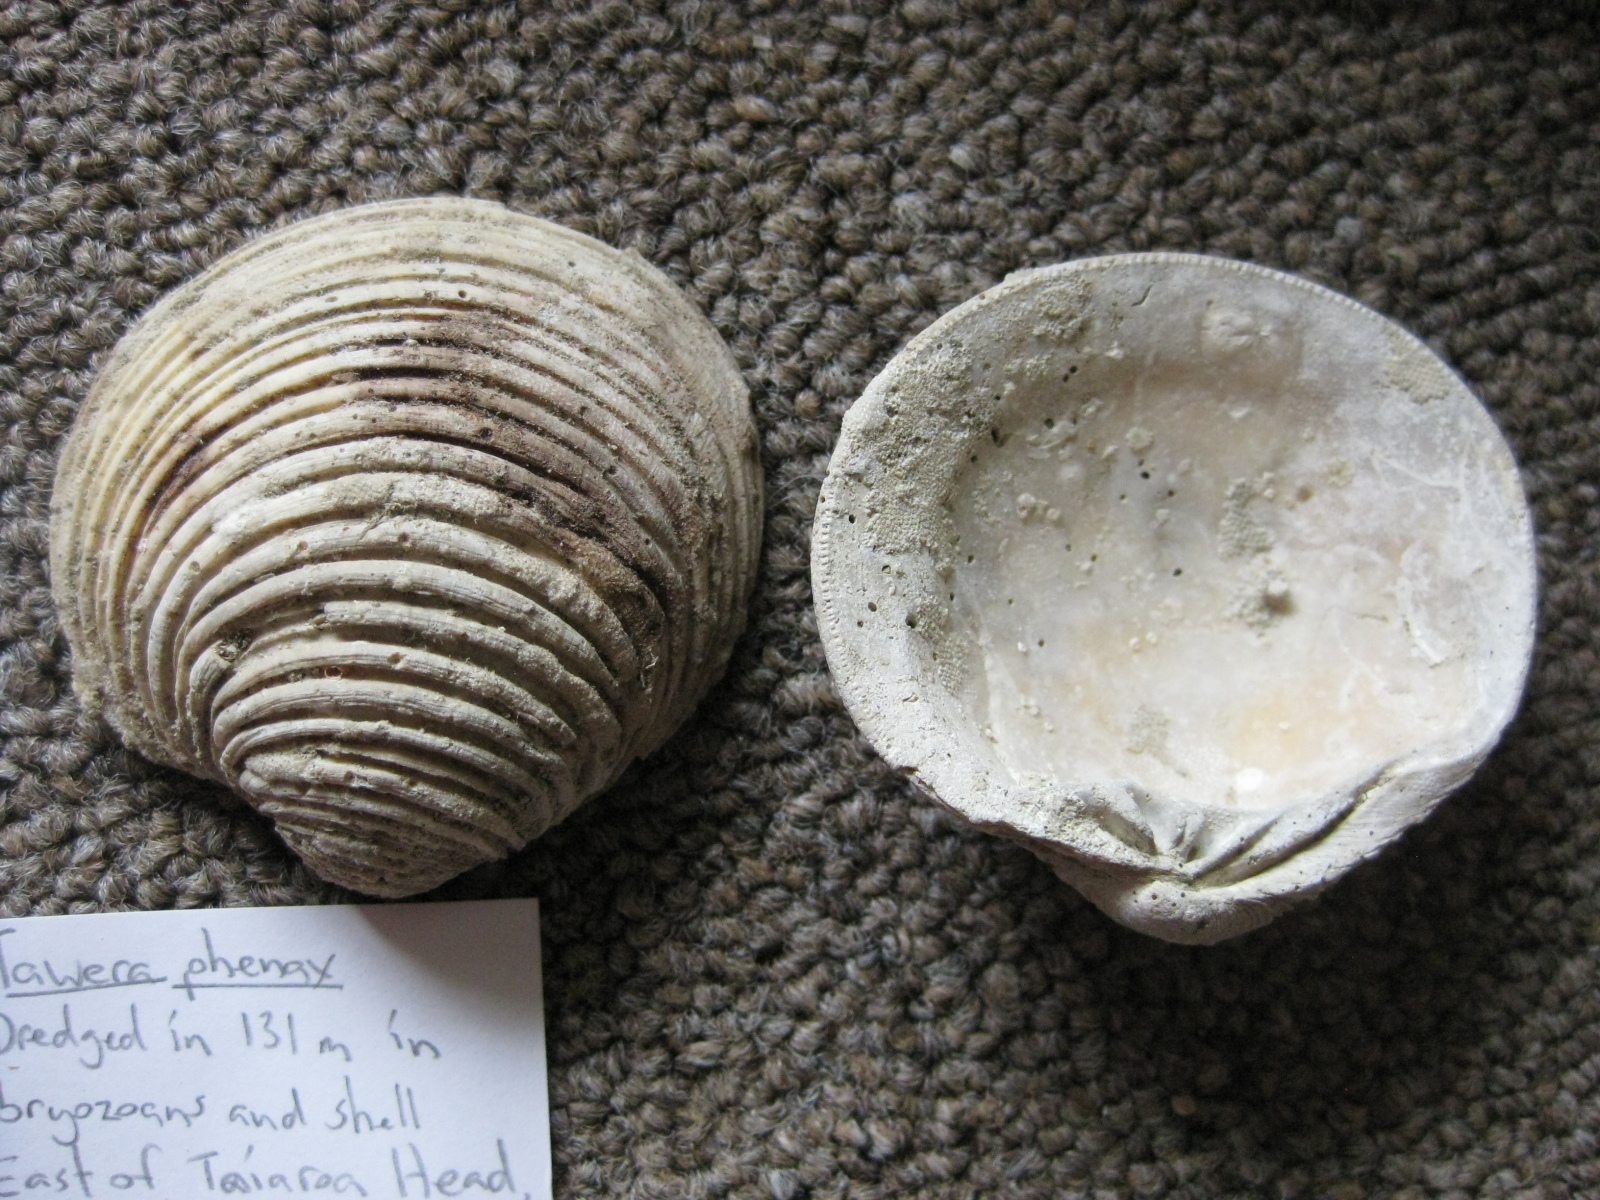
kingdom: Animalia
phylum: Mollusca
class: Bivalvia
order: Venerida
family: Veneridae
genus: Tawera
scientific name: Tawera phenax
